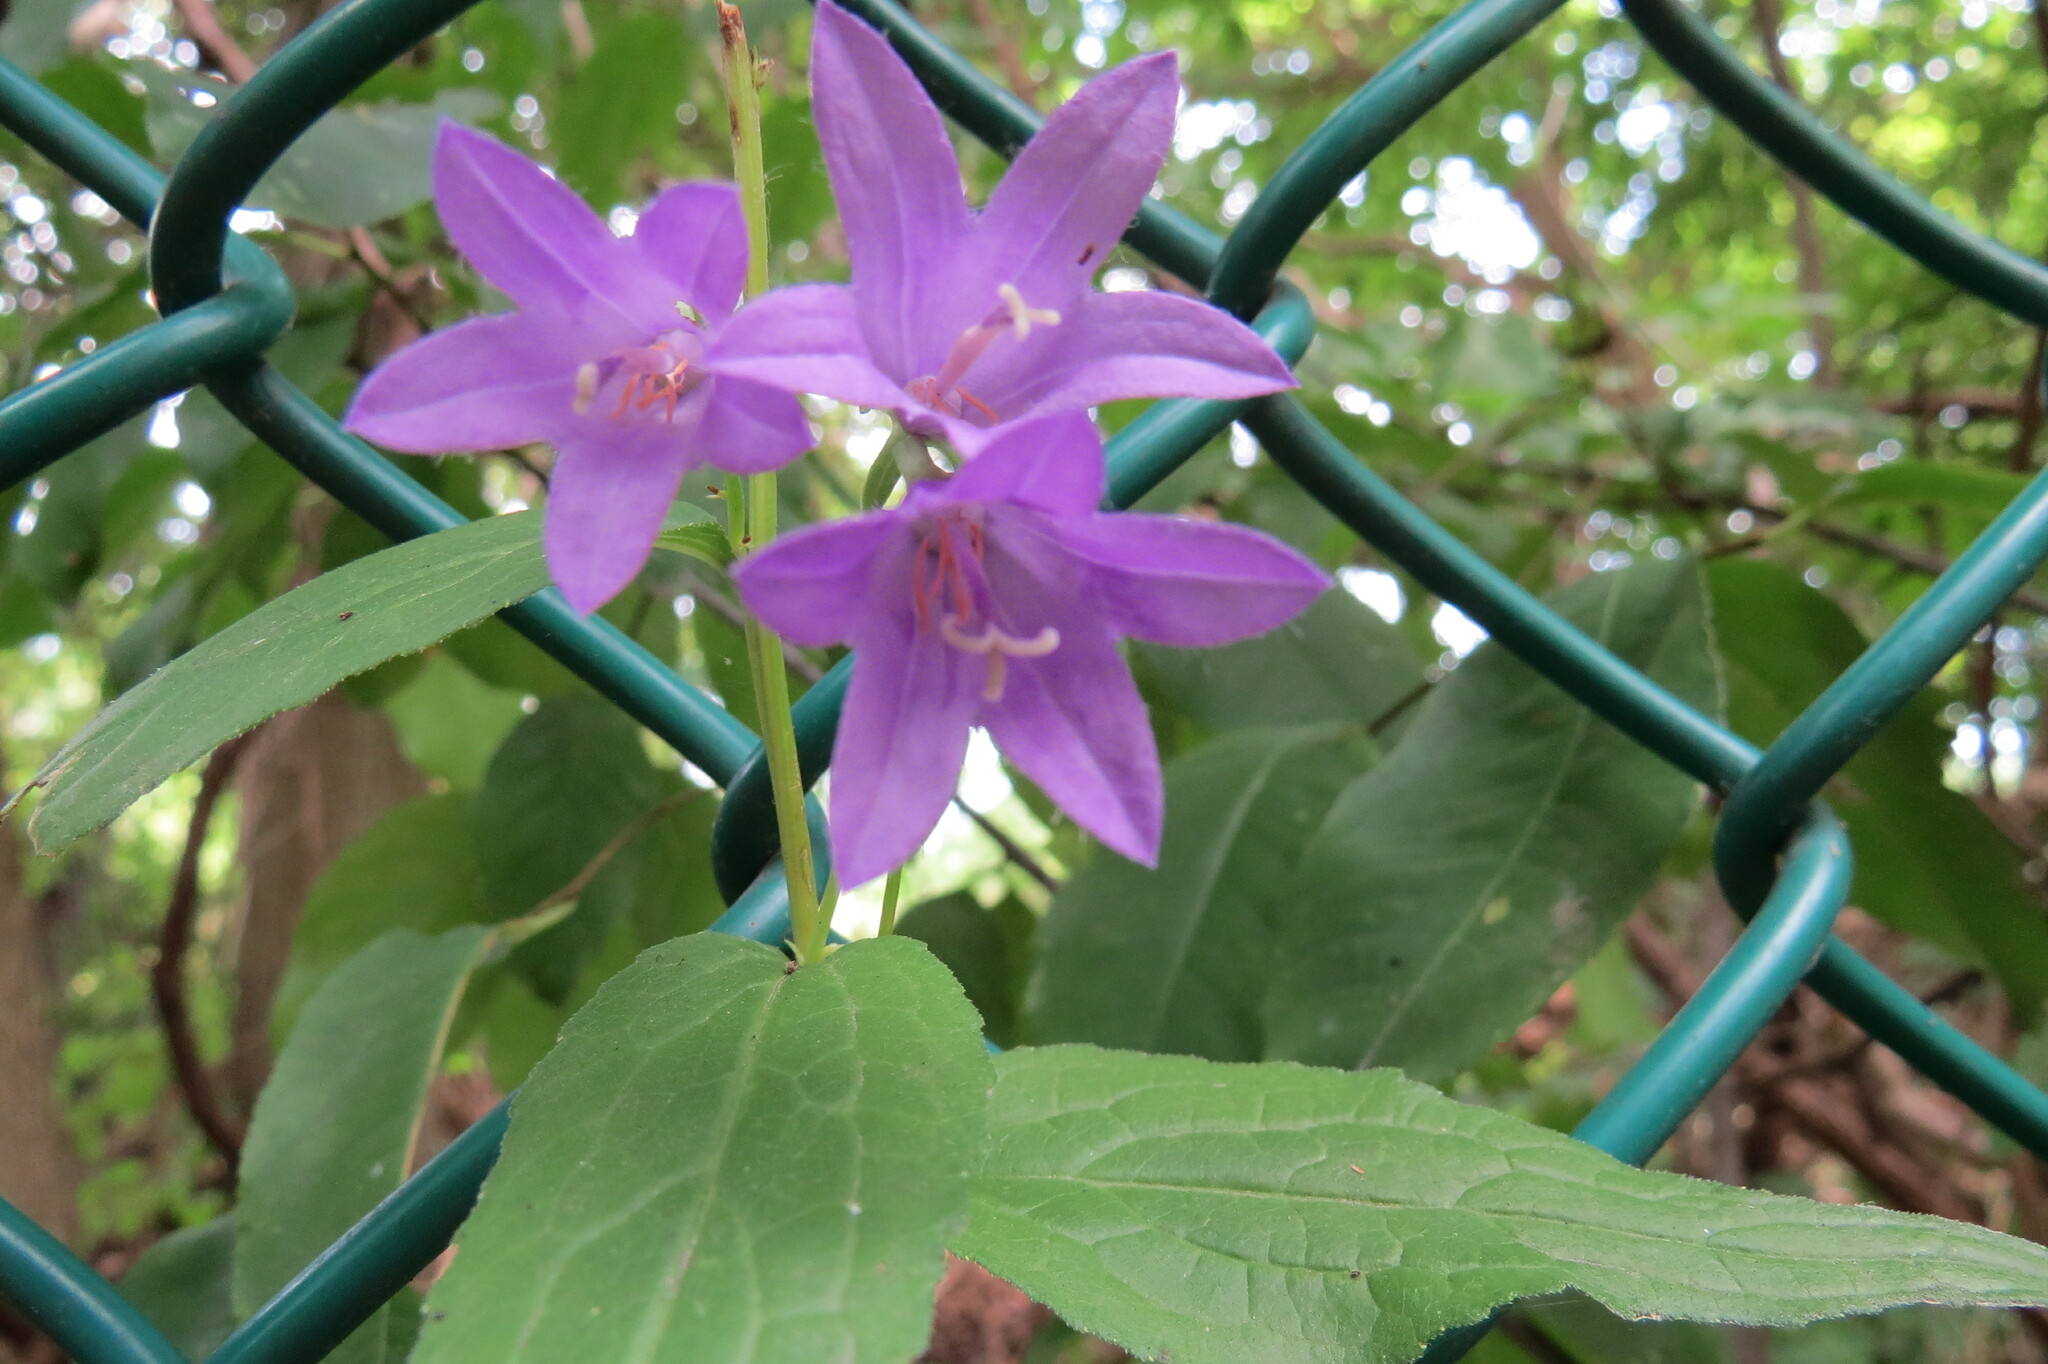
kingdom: Plantae
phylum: Tracheophyta
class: Magnoliopsida
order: Asterales
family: Campanulaceae
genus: Campanula
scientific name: Campanula rapunculoides
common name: Creeping bellflower
